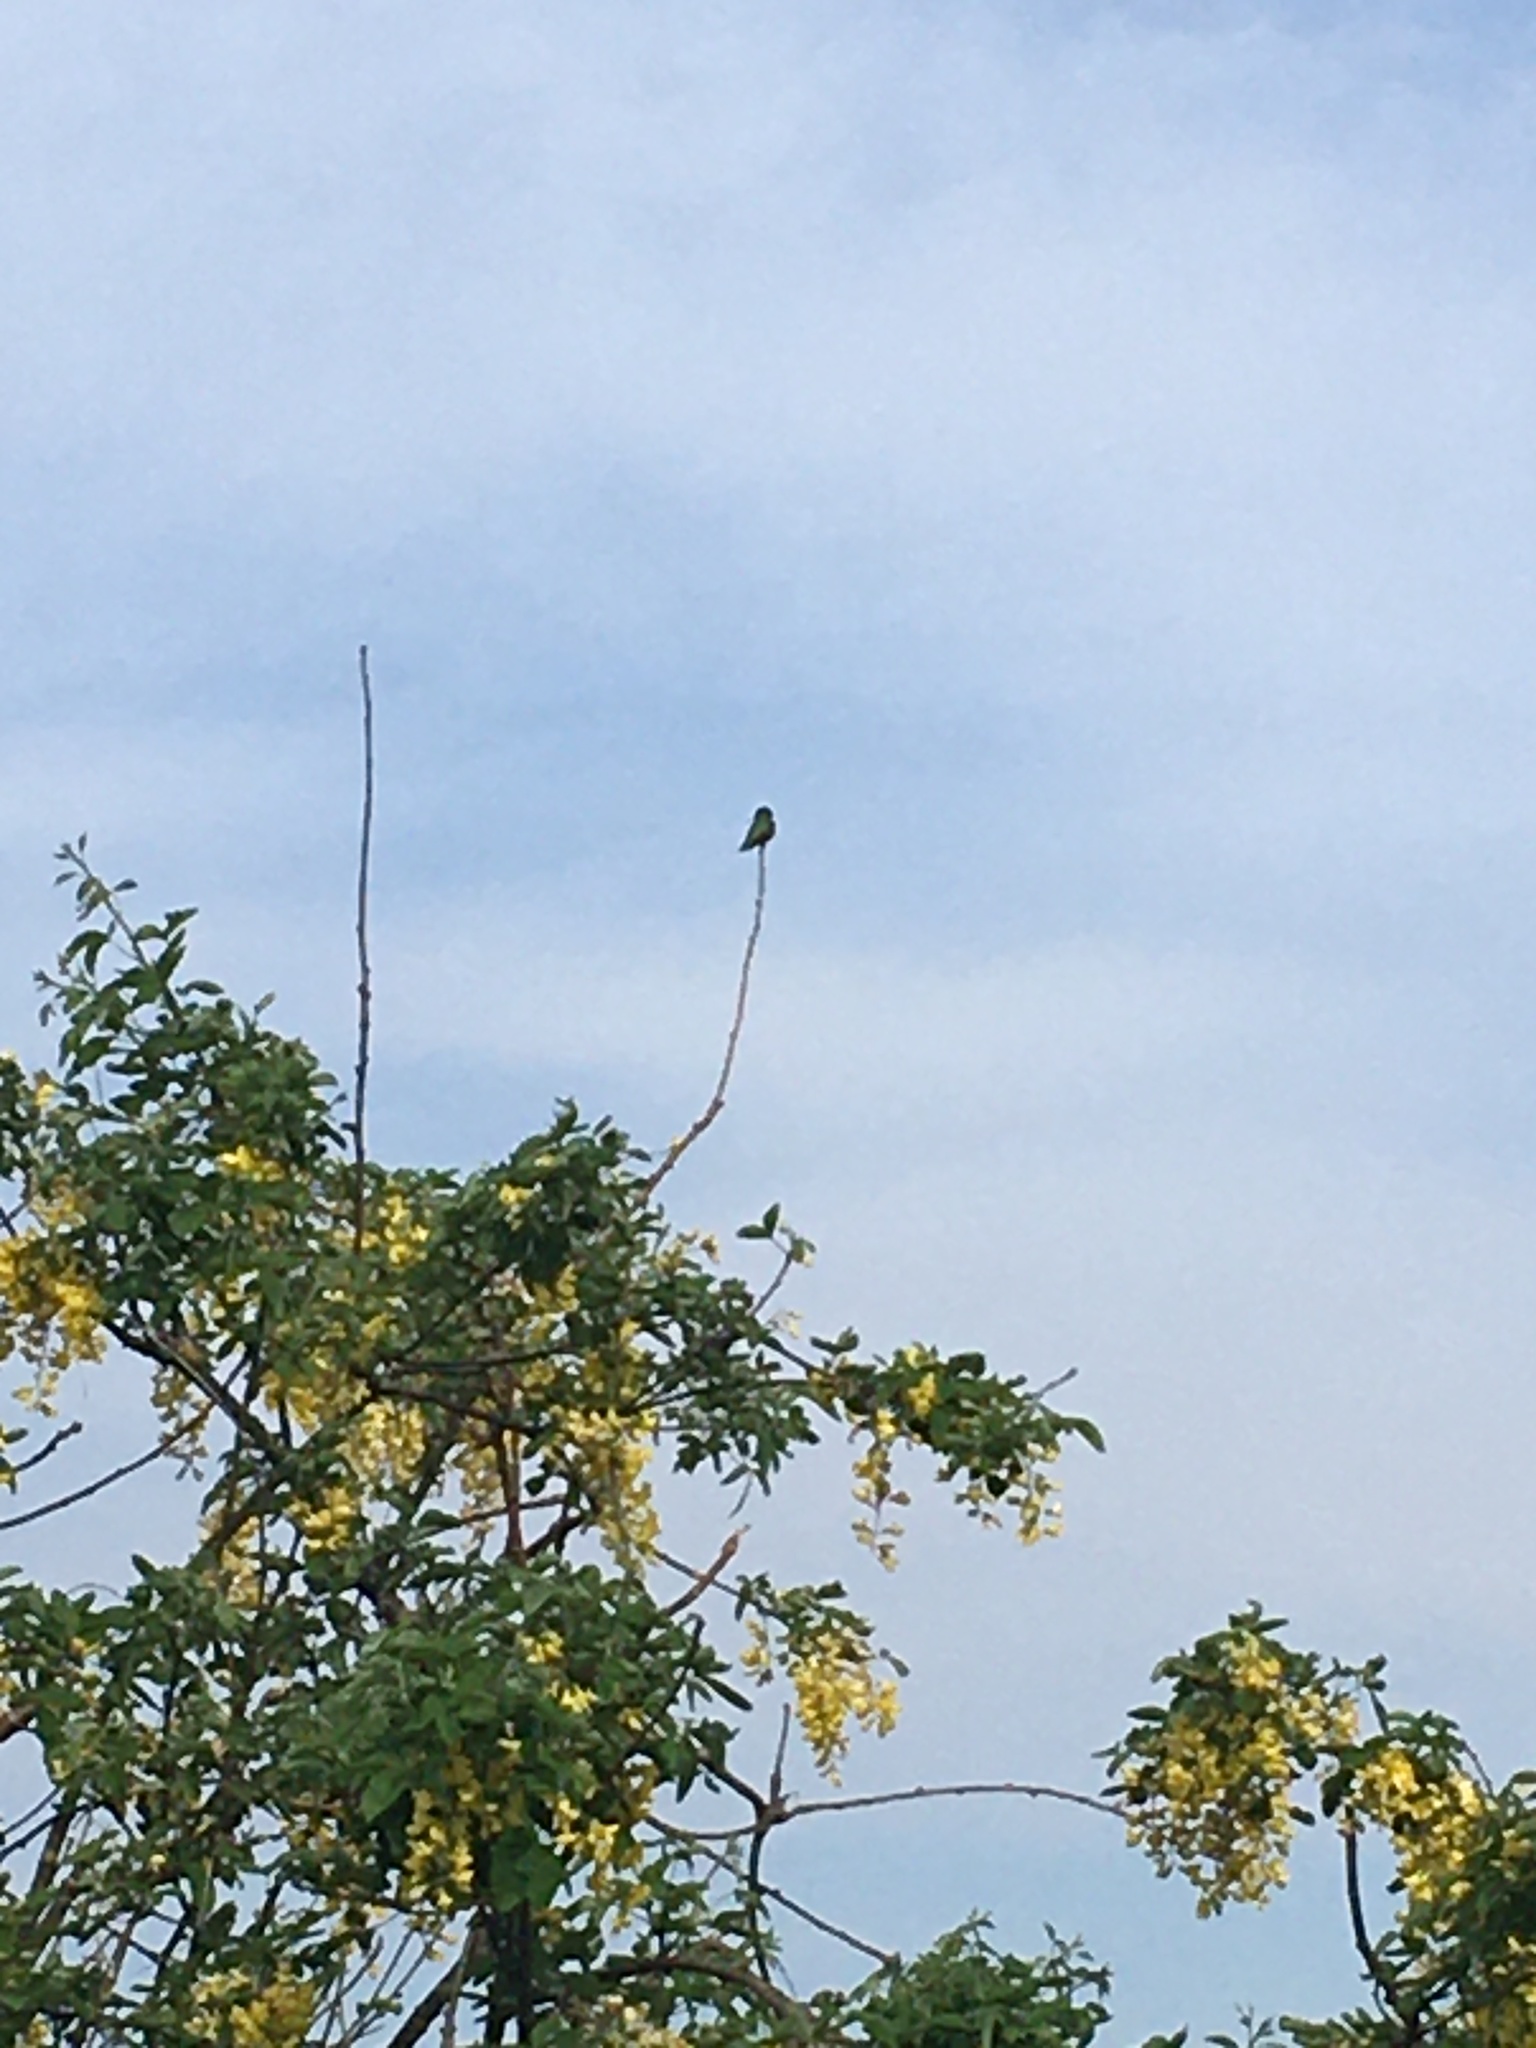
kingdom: Animalia
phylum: Chordata
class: Aves
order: Apodiformes
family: Trochilidae
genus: Selasphorus
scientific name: Selasphorus rufus
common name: Rufous hummingbird
